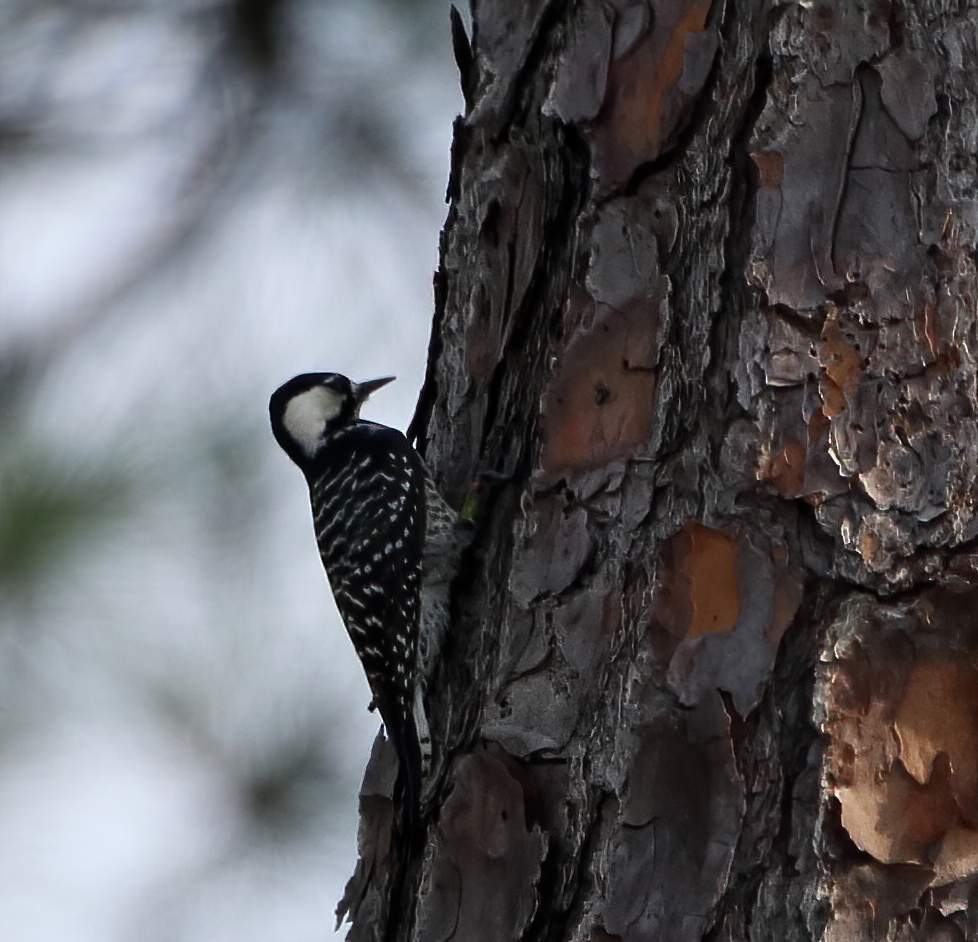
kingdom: Animalia
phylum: Chordata
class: Aves
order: Piciformes
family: Picidae
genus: Leuconotopicus
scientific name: Leuconotopicus borealis
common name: Red-cockaded woodpecker
